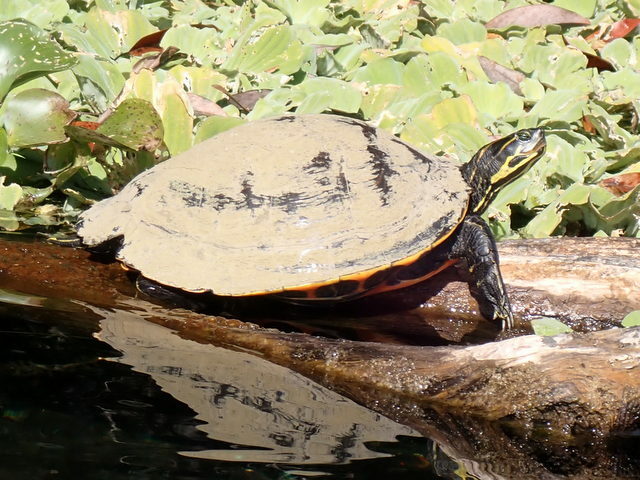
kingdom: Animalia
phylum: Chordata
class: Testudines
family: Emydidae
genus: Pseudemys
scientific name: Pseudemys concinna
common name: Eastern river cooter
